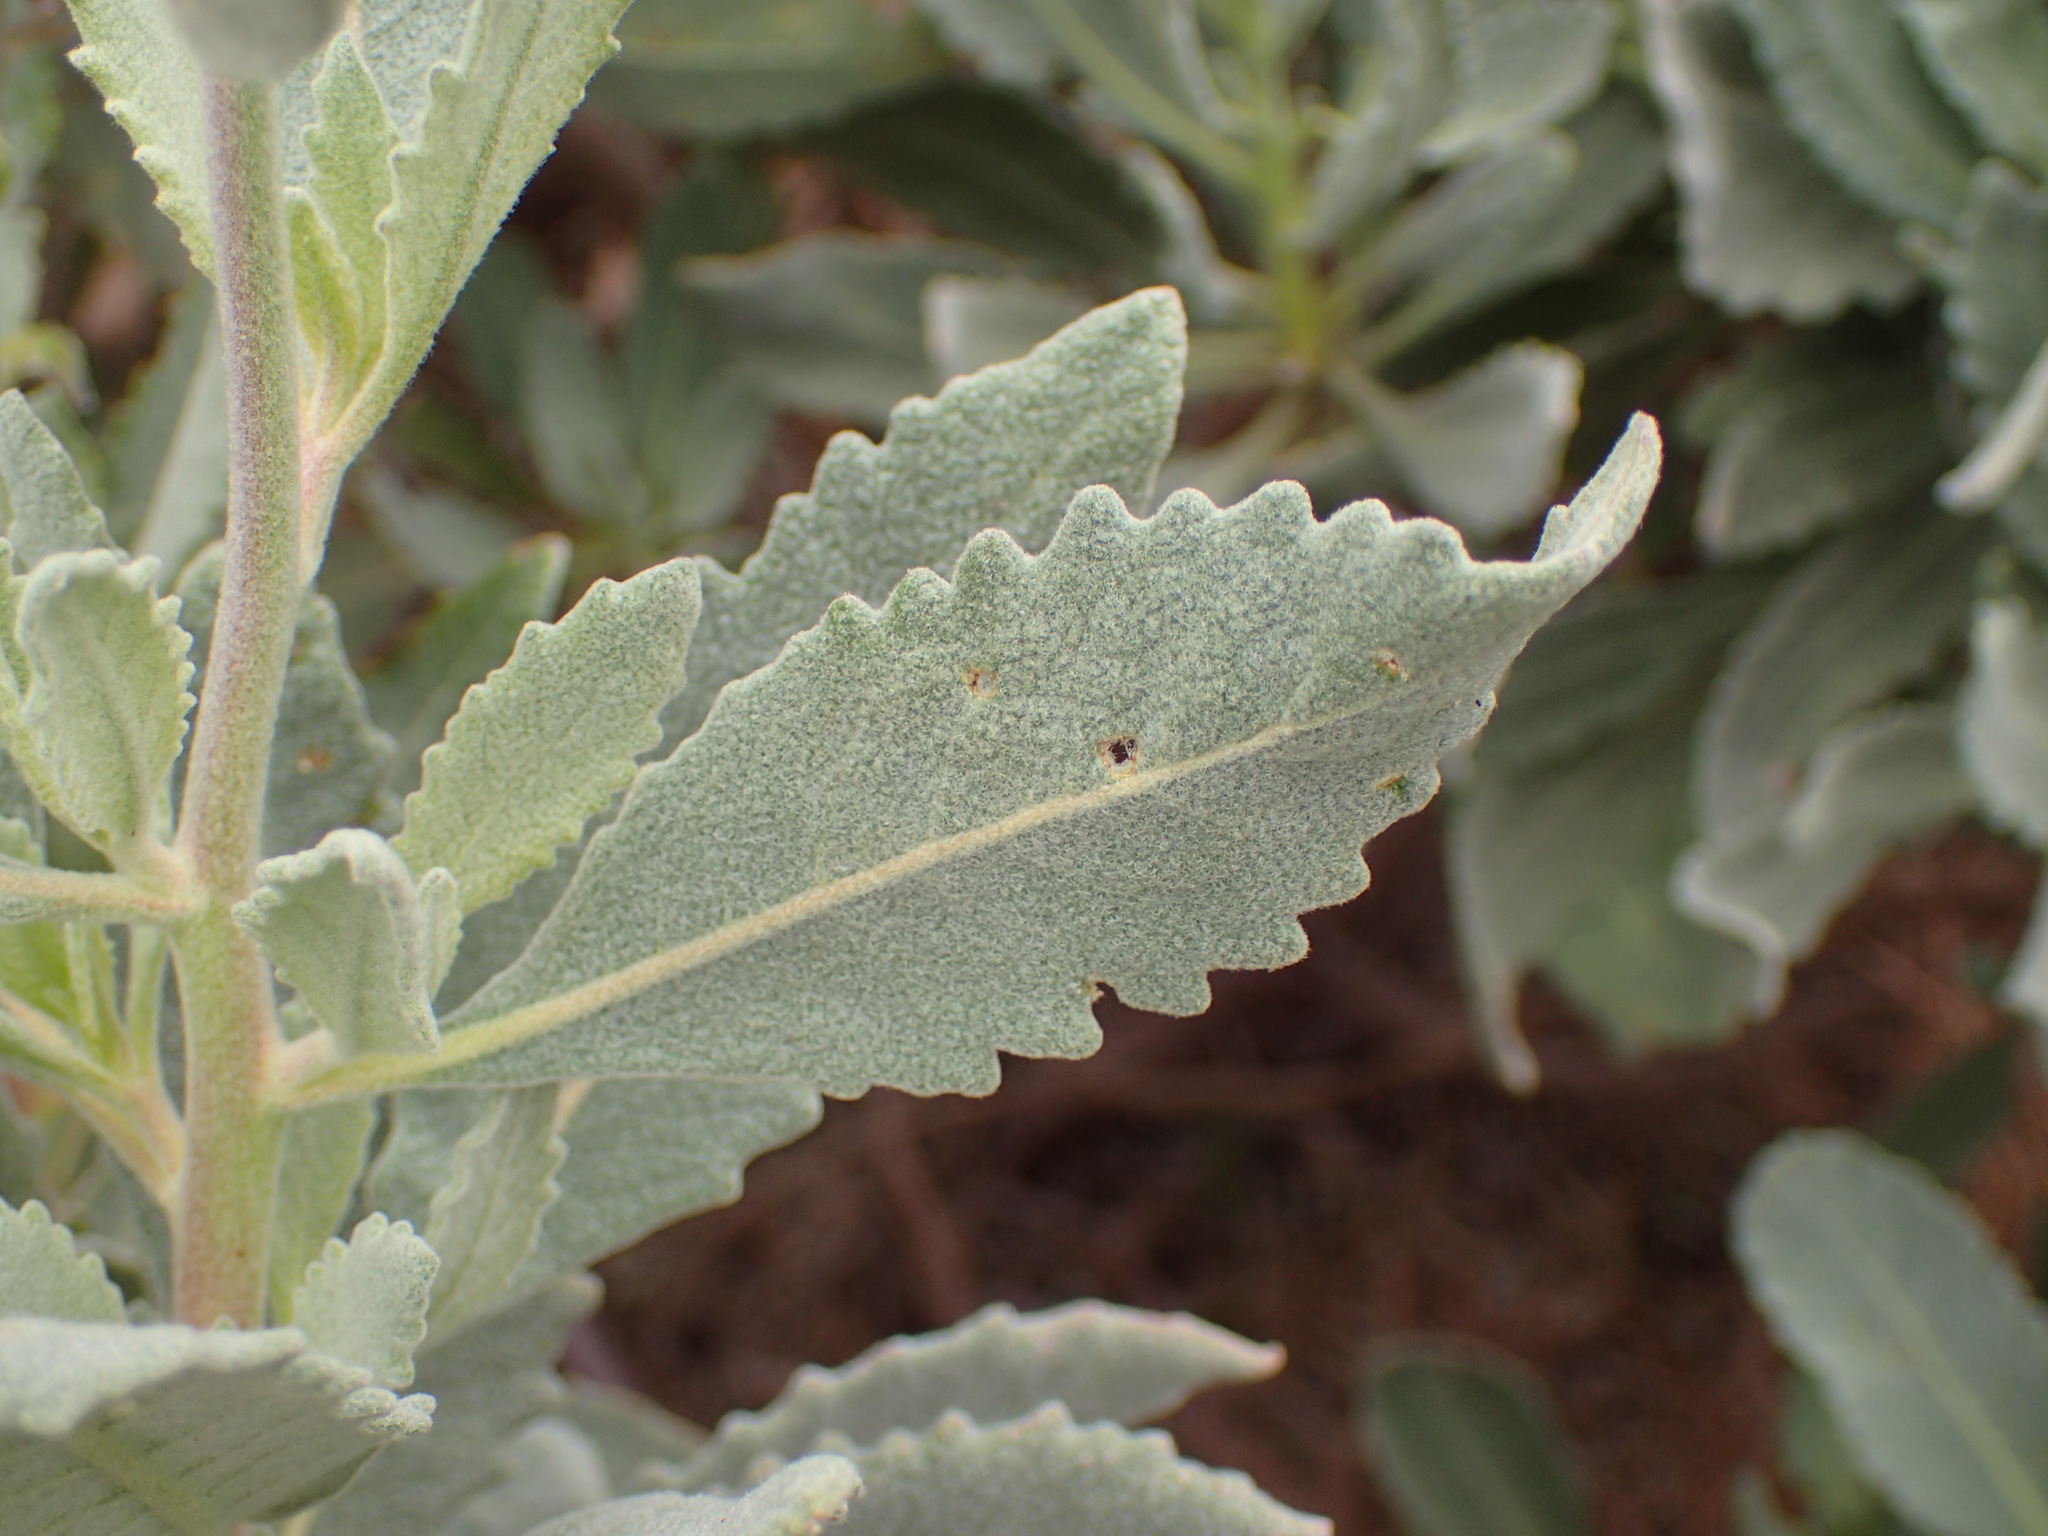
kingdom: Plantae
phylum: Tracheophyta
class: Magnoliopsida
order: Boraginales
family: Namaceae
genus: Eriodictyon
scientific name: Eriodictyon traskiae
